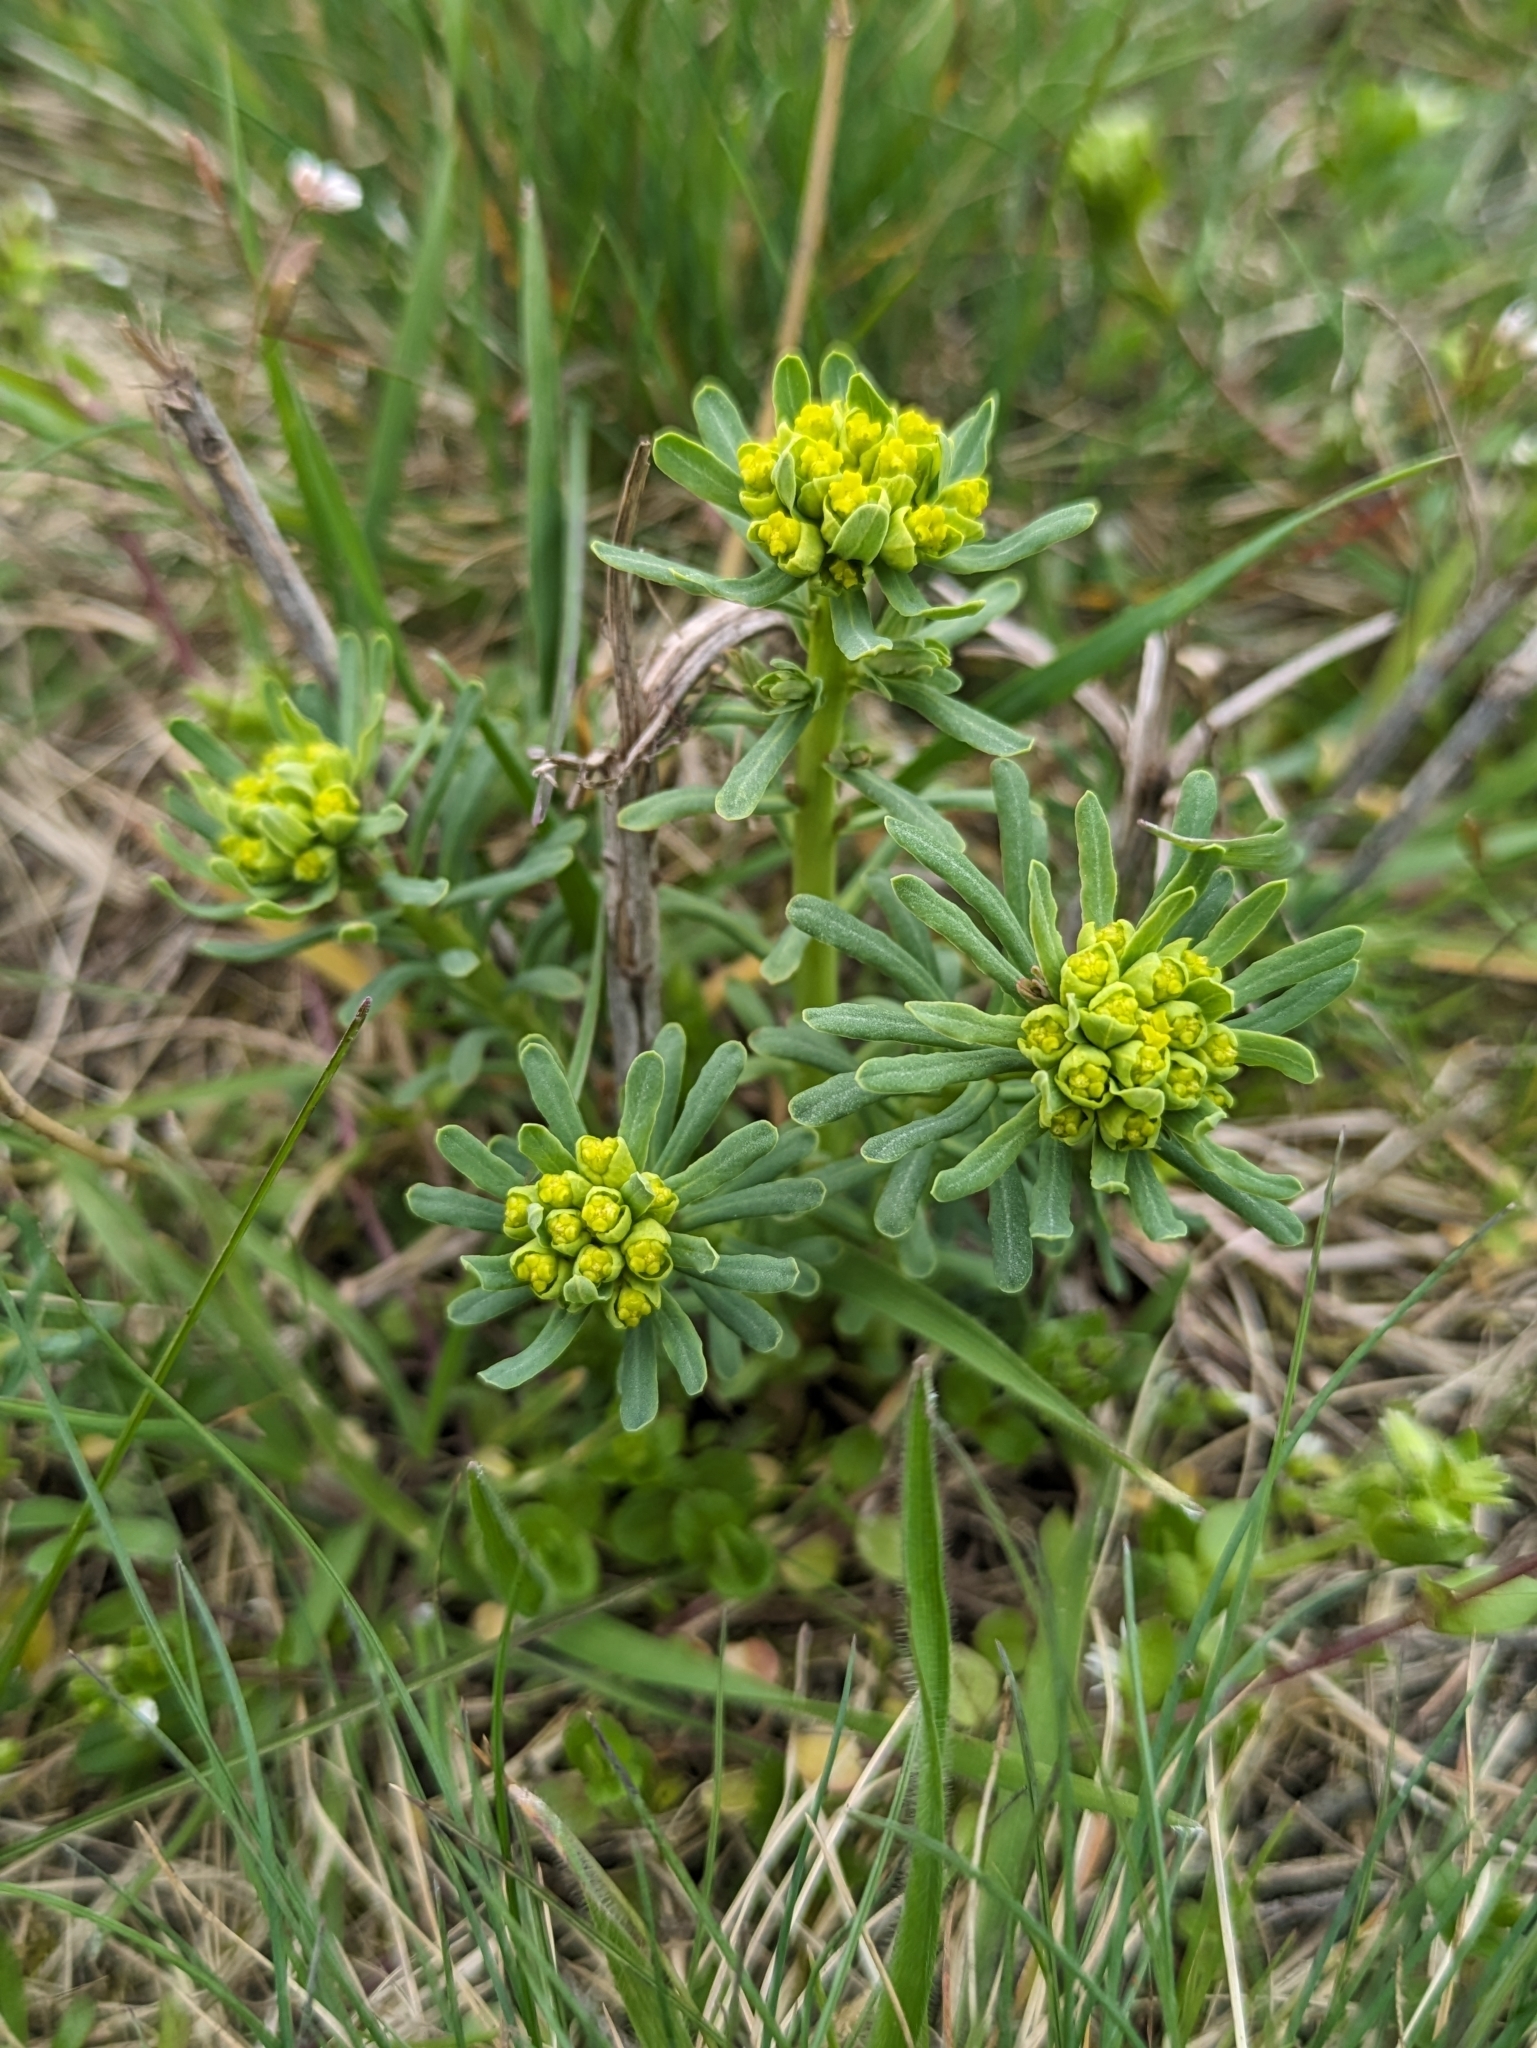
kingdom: Plantae
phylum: Tracheophyta
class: Magnoliopsida
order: Malpighiales
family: Euphorbiaceae
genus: Euphorbia
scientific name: Euphorbia cyparissias
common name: Cypress spurge
